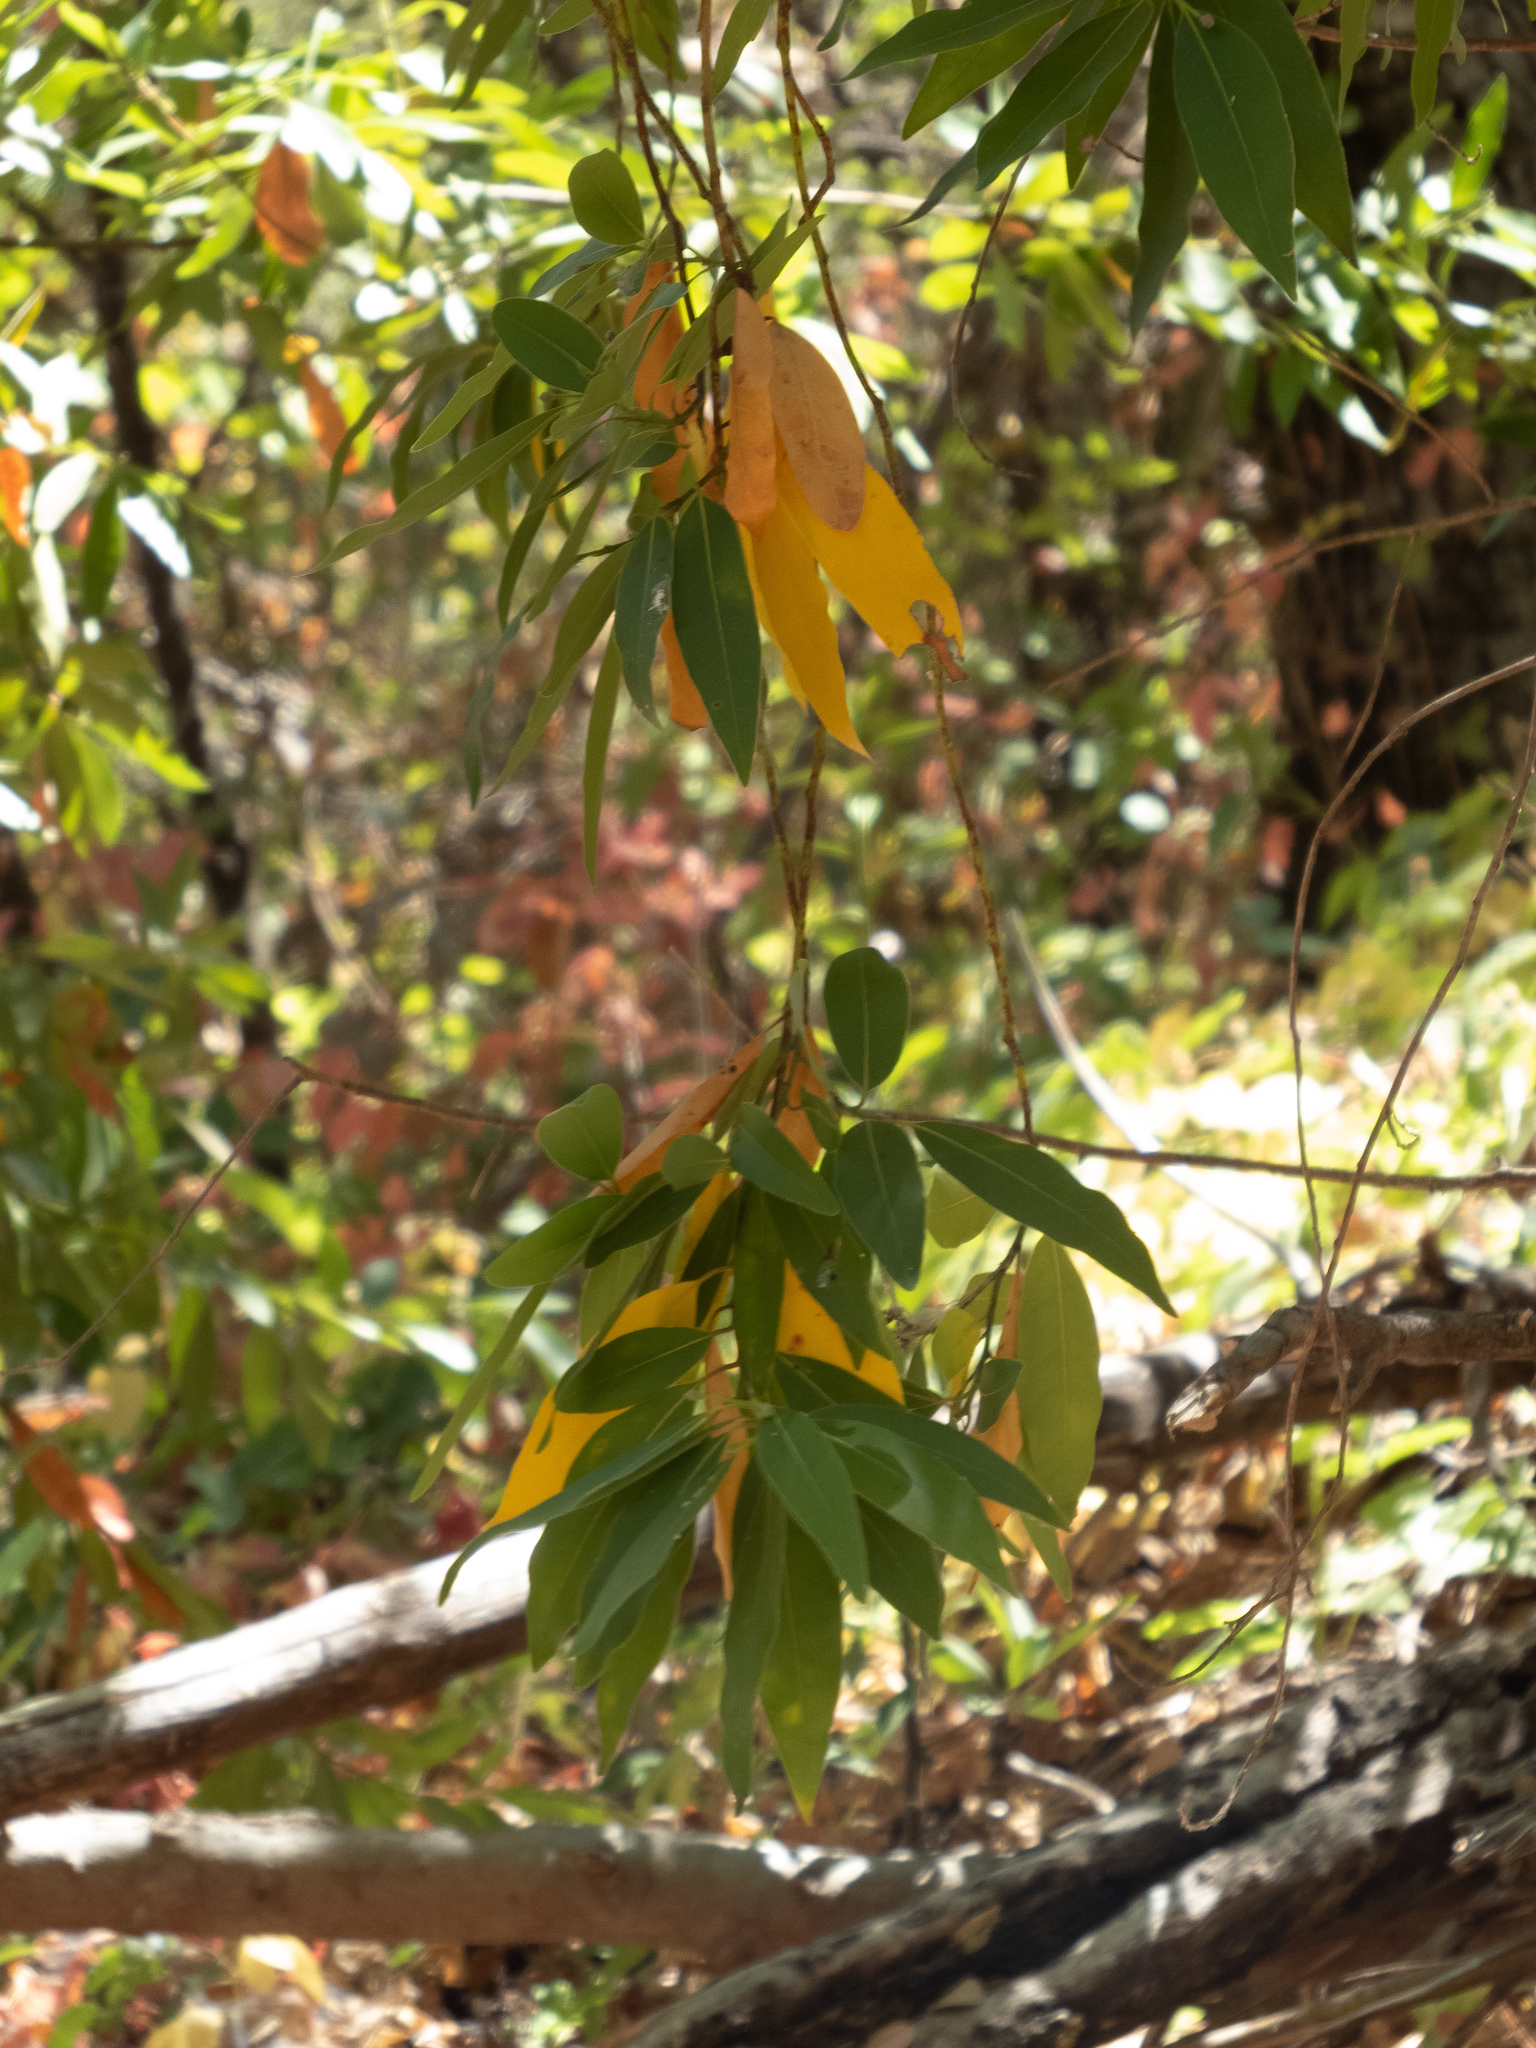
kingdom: Plantae
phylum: Tracheophyta
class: Magnoliopsida
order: Laurales
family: Lauraceae
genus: Umbellularia
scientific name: Umbellularia californica
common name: California bay
